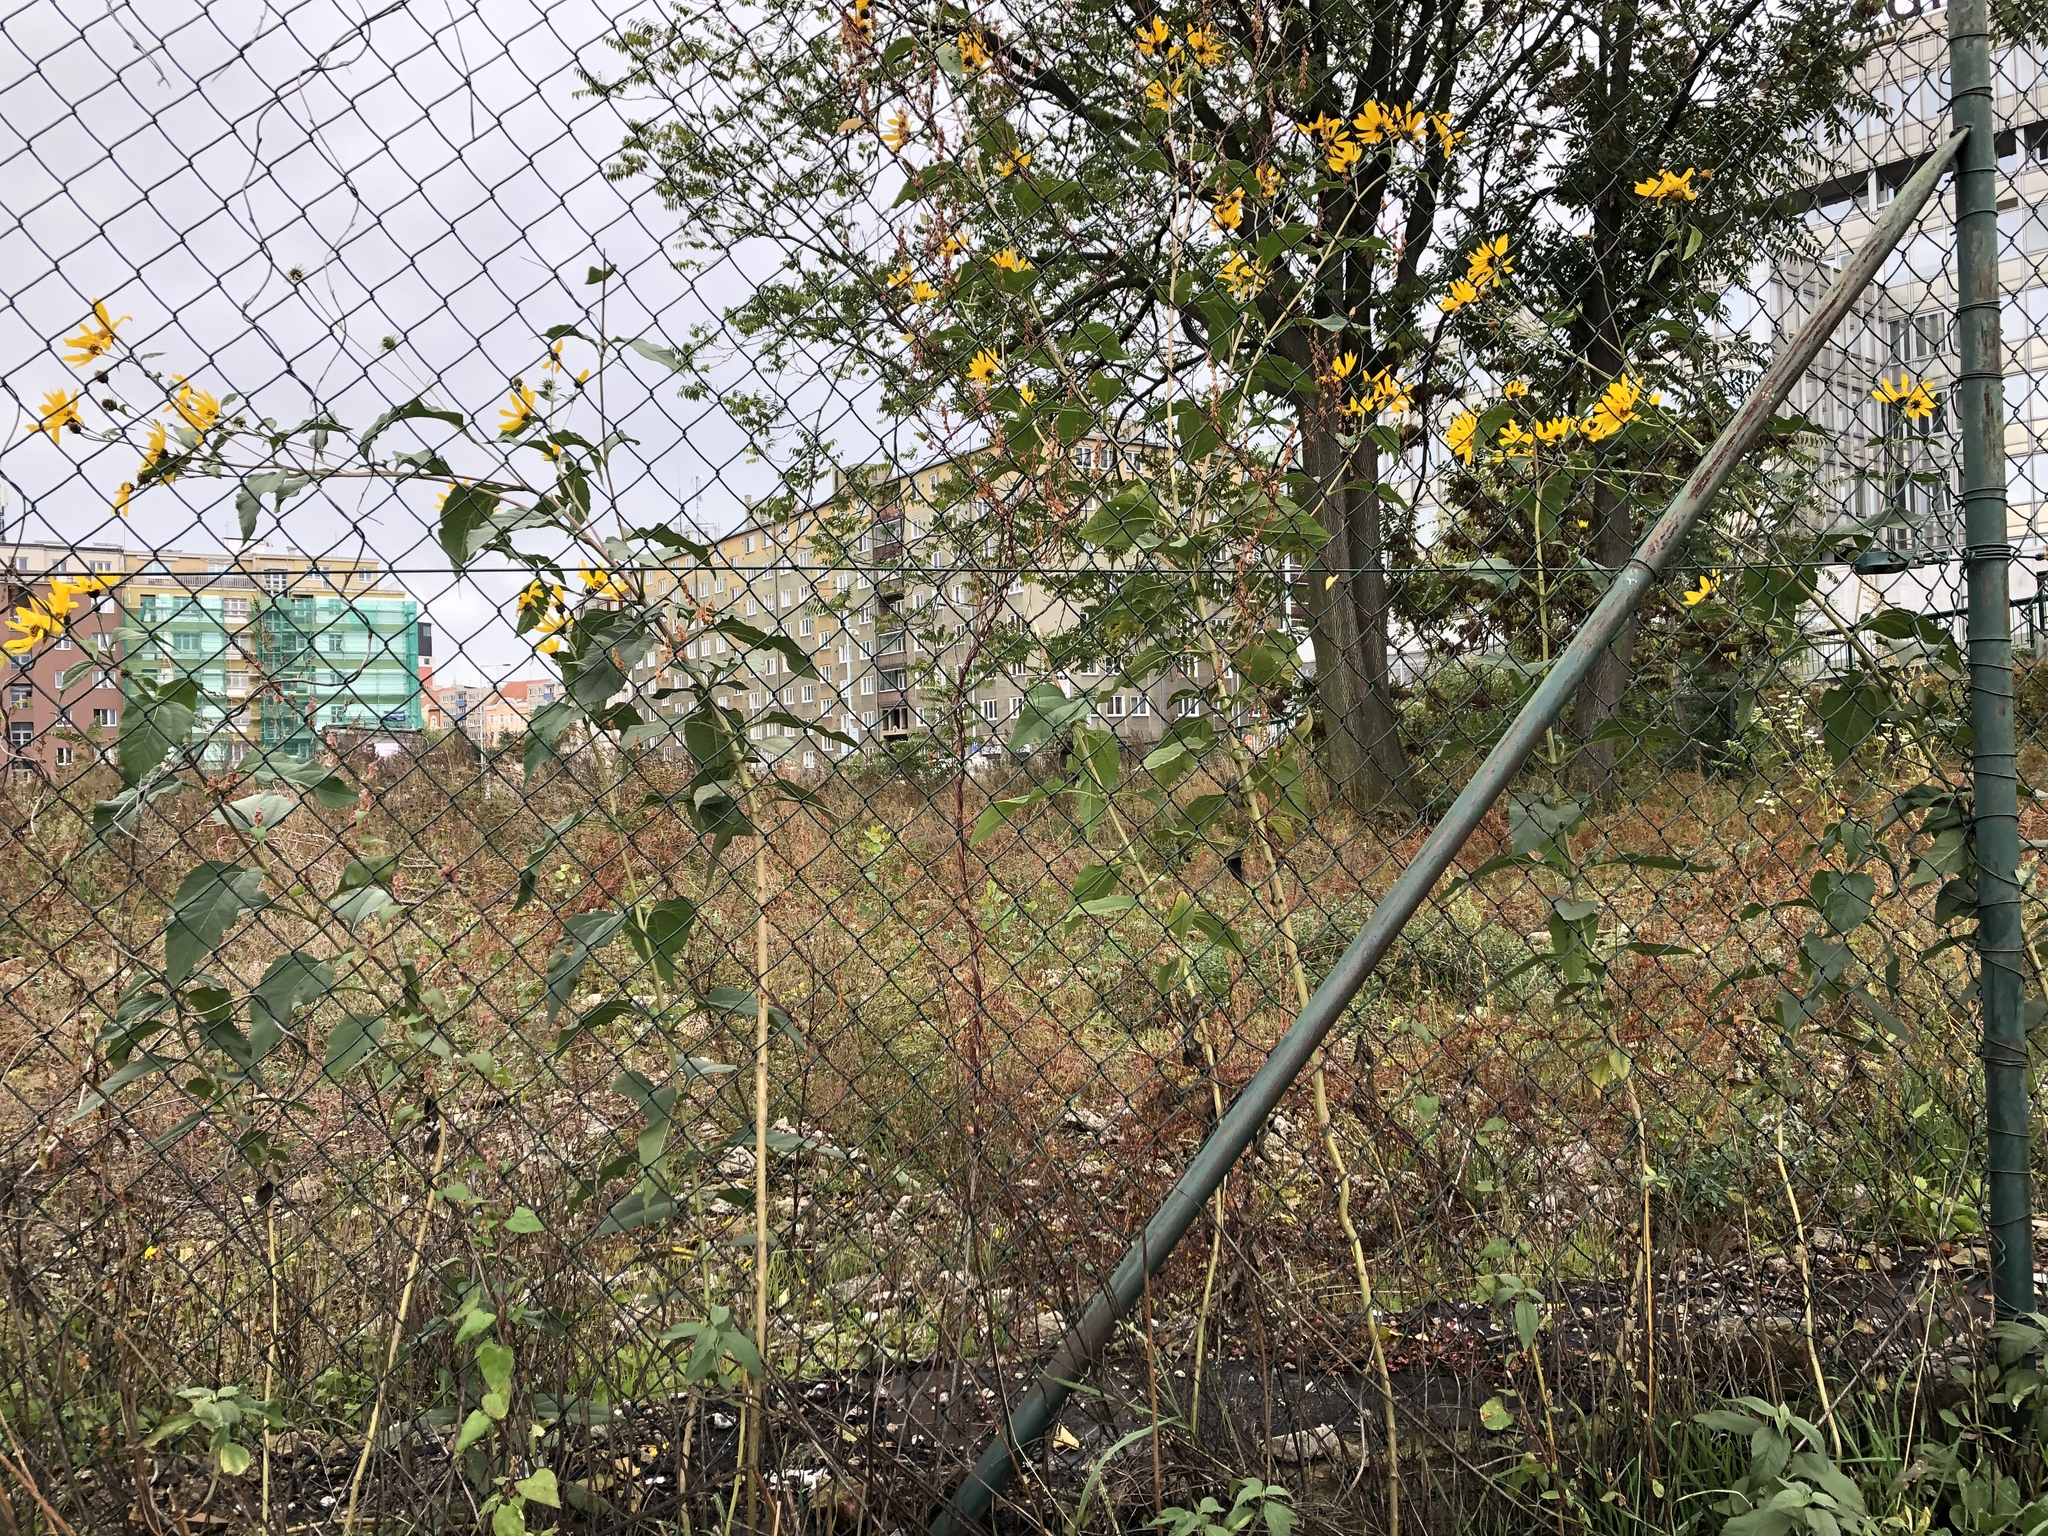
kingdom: Plantae
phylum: Tracheophyta
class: Magnoliopsida
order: Asterales
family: Asteraceae
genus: Helianthus
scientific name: Helianthus tuberosus
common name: Jerusalem artichoke
